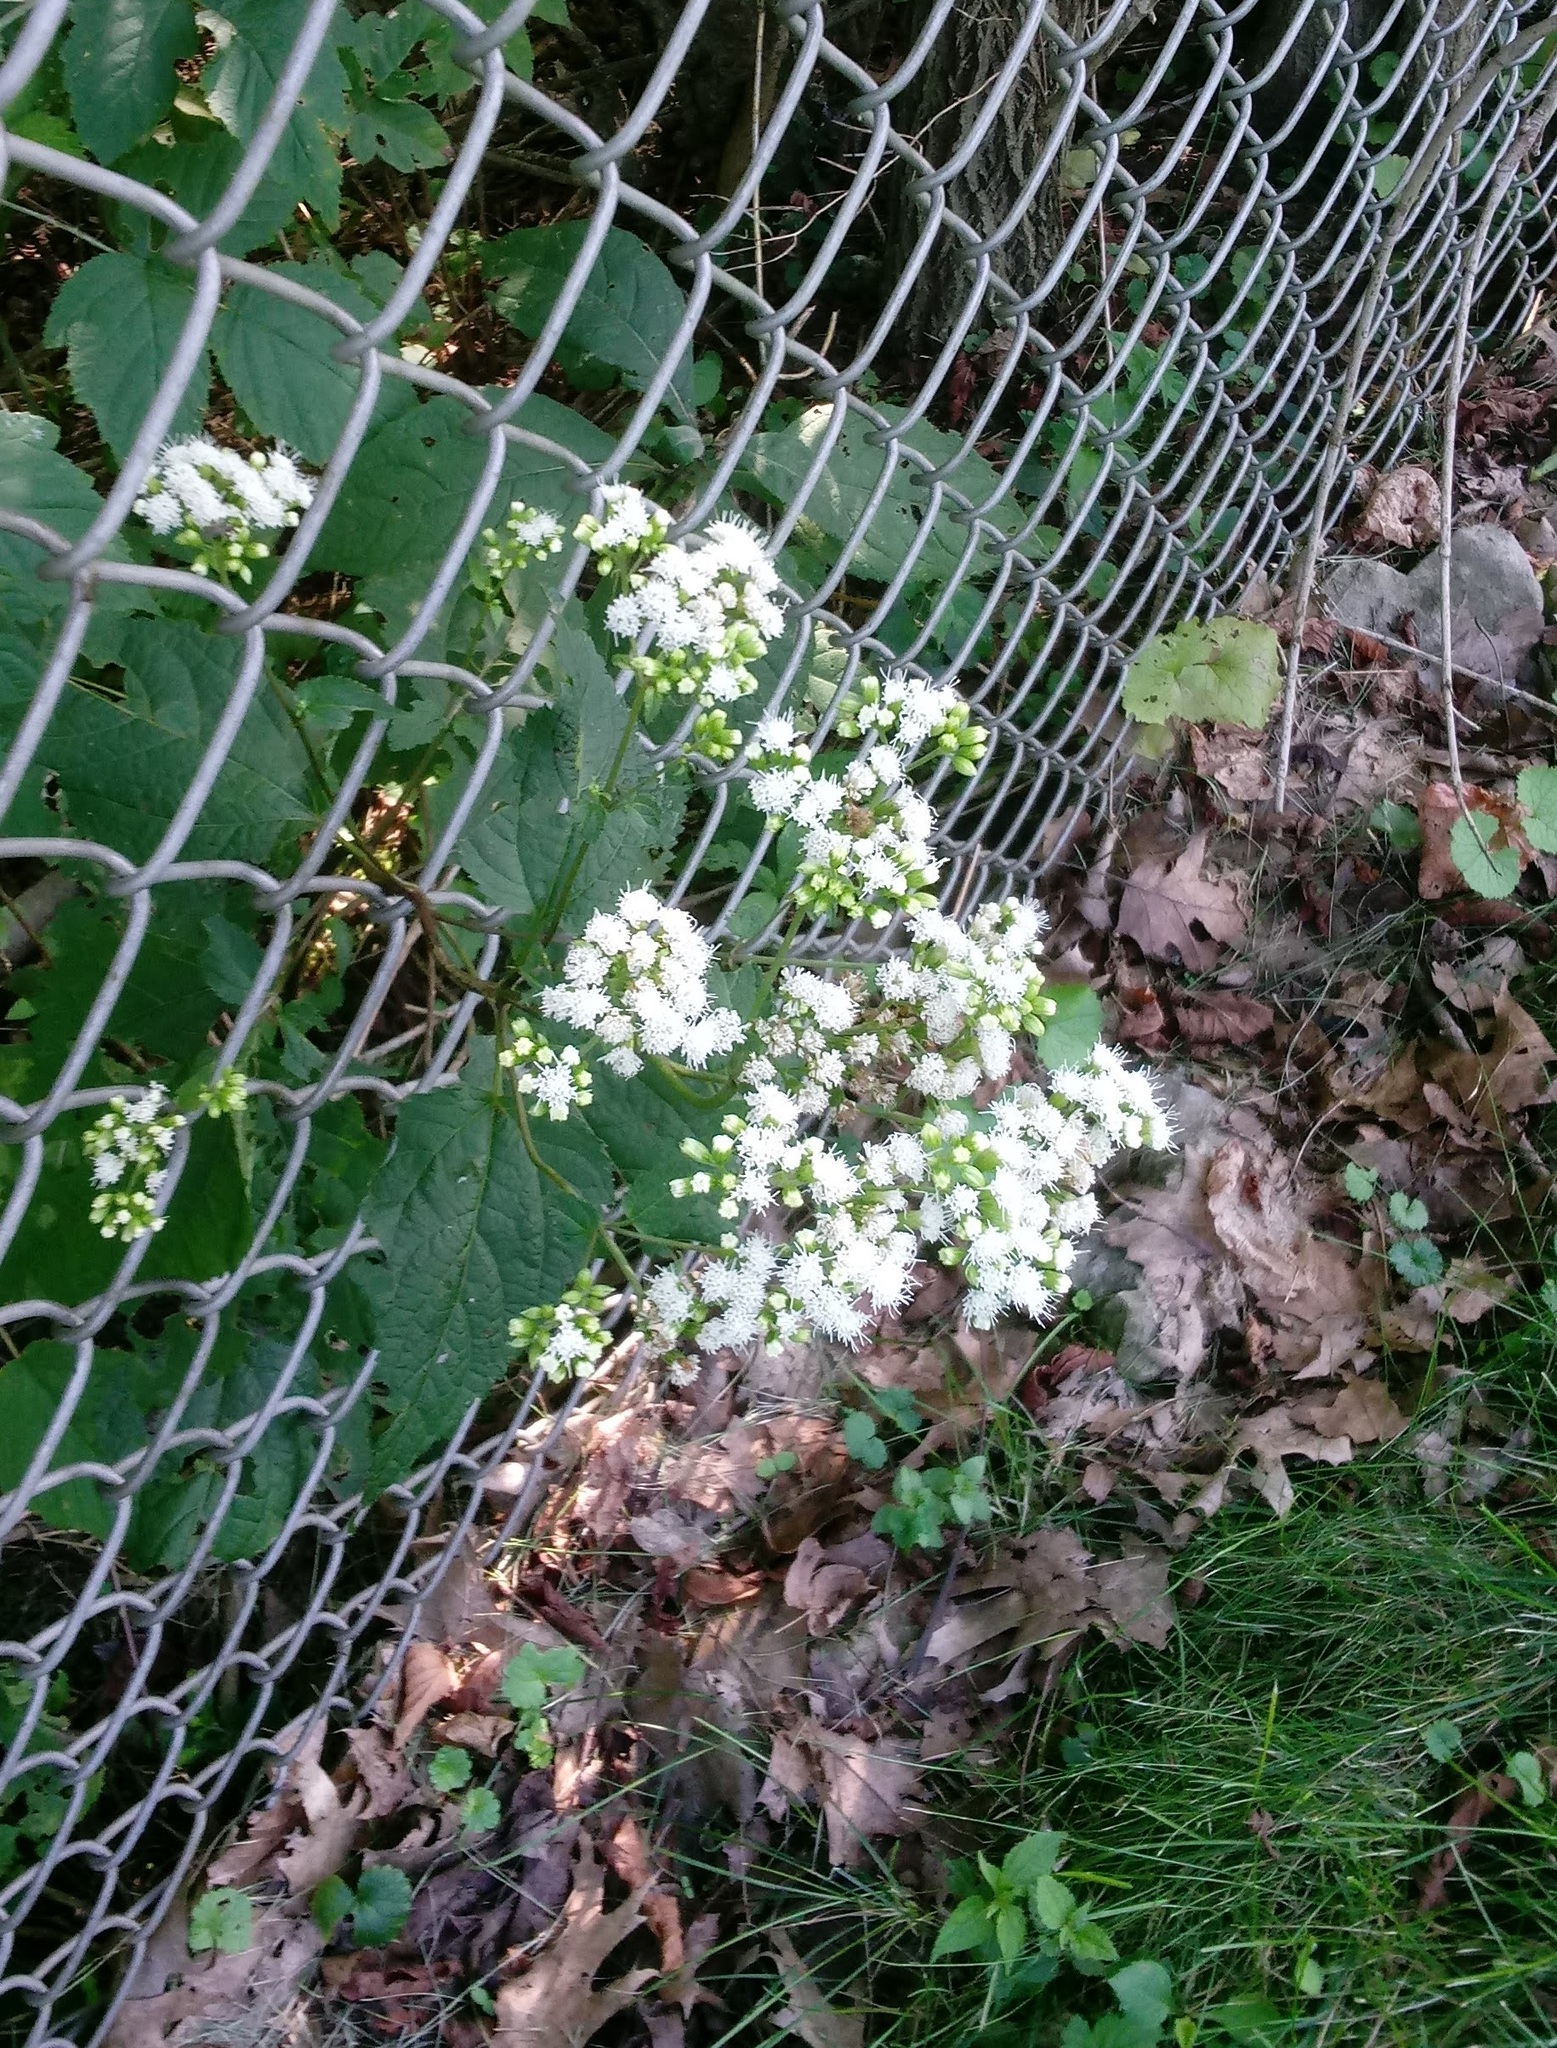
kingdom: Plantae
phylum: Tracheophyta
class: Magnoliopsida
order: Asterales
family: Asteraceae
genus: Ageratina
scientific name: Ageratina altissima
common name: White snakeroot
